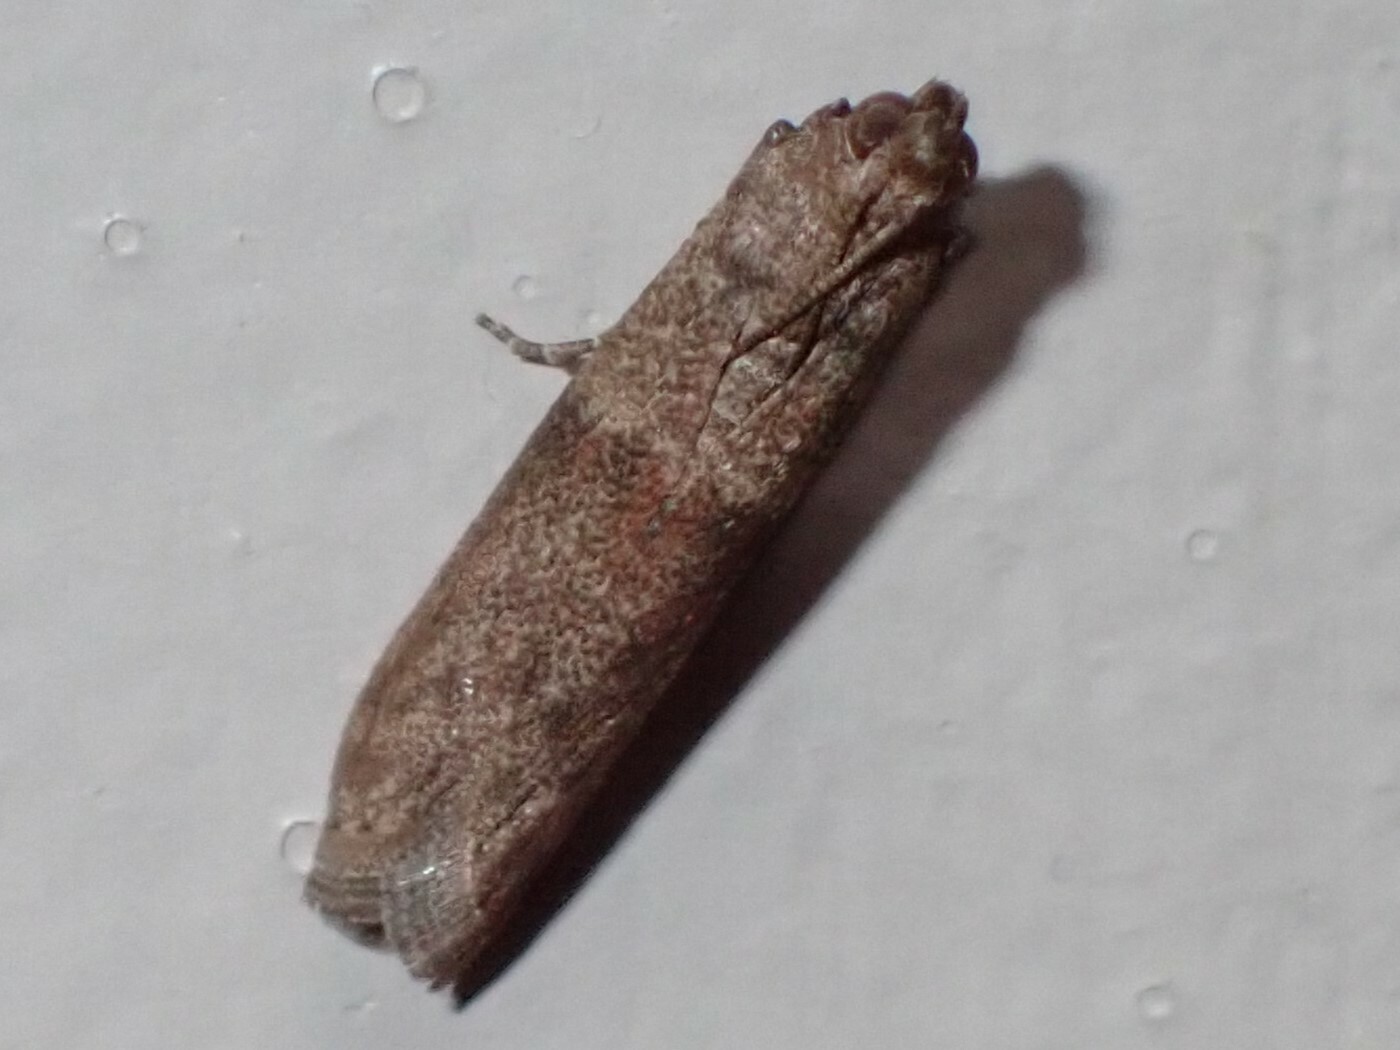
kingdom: Animalia
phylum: Arthropoda
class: Insecta
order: Lepidoptera
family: Pyralidae
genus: Plodia
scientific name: Plodia interpunctella
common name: Indian meal moth
